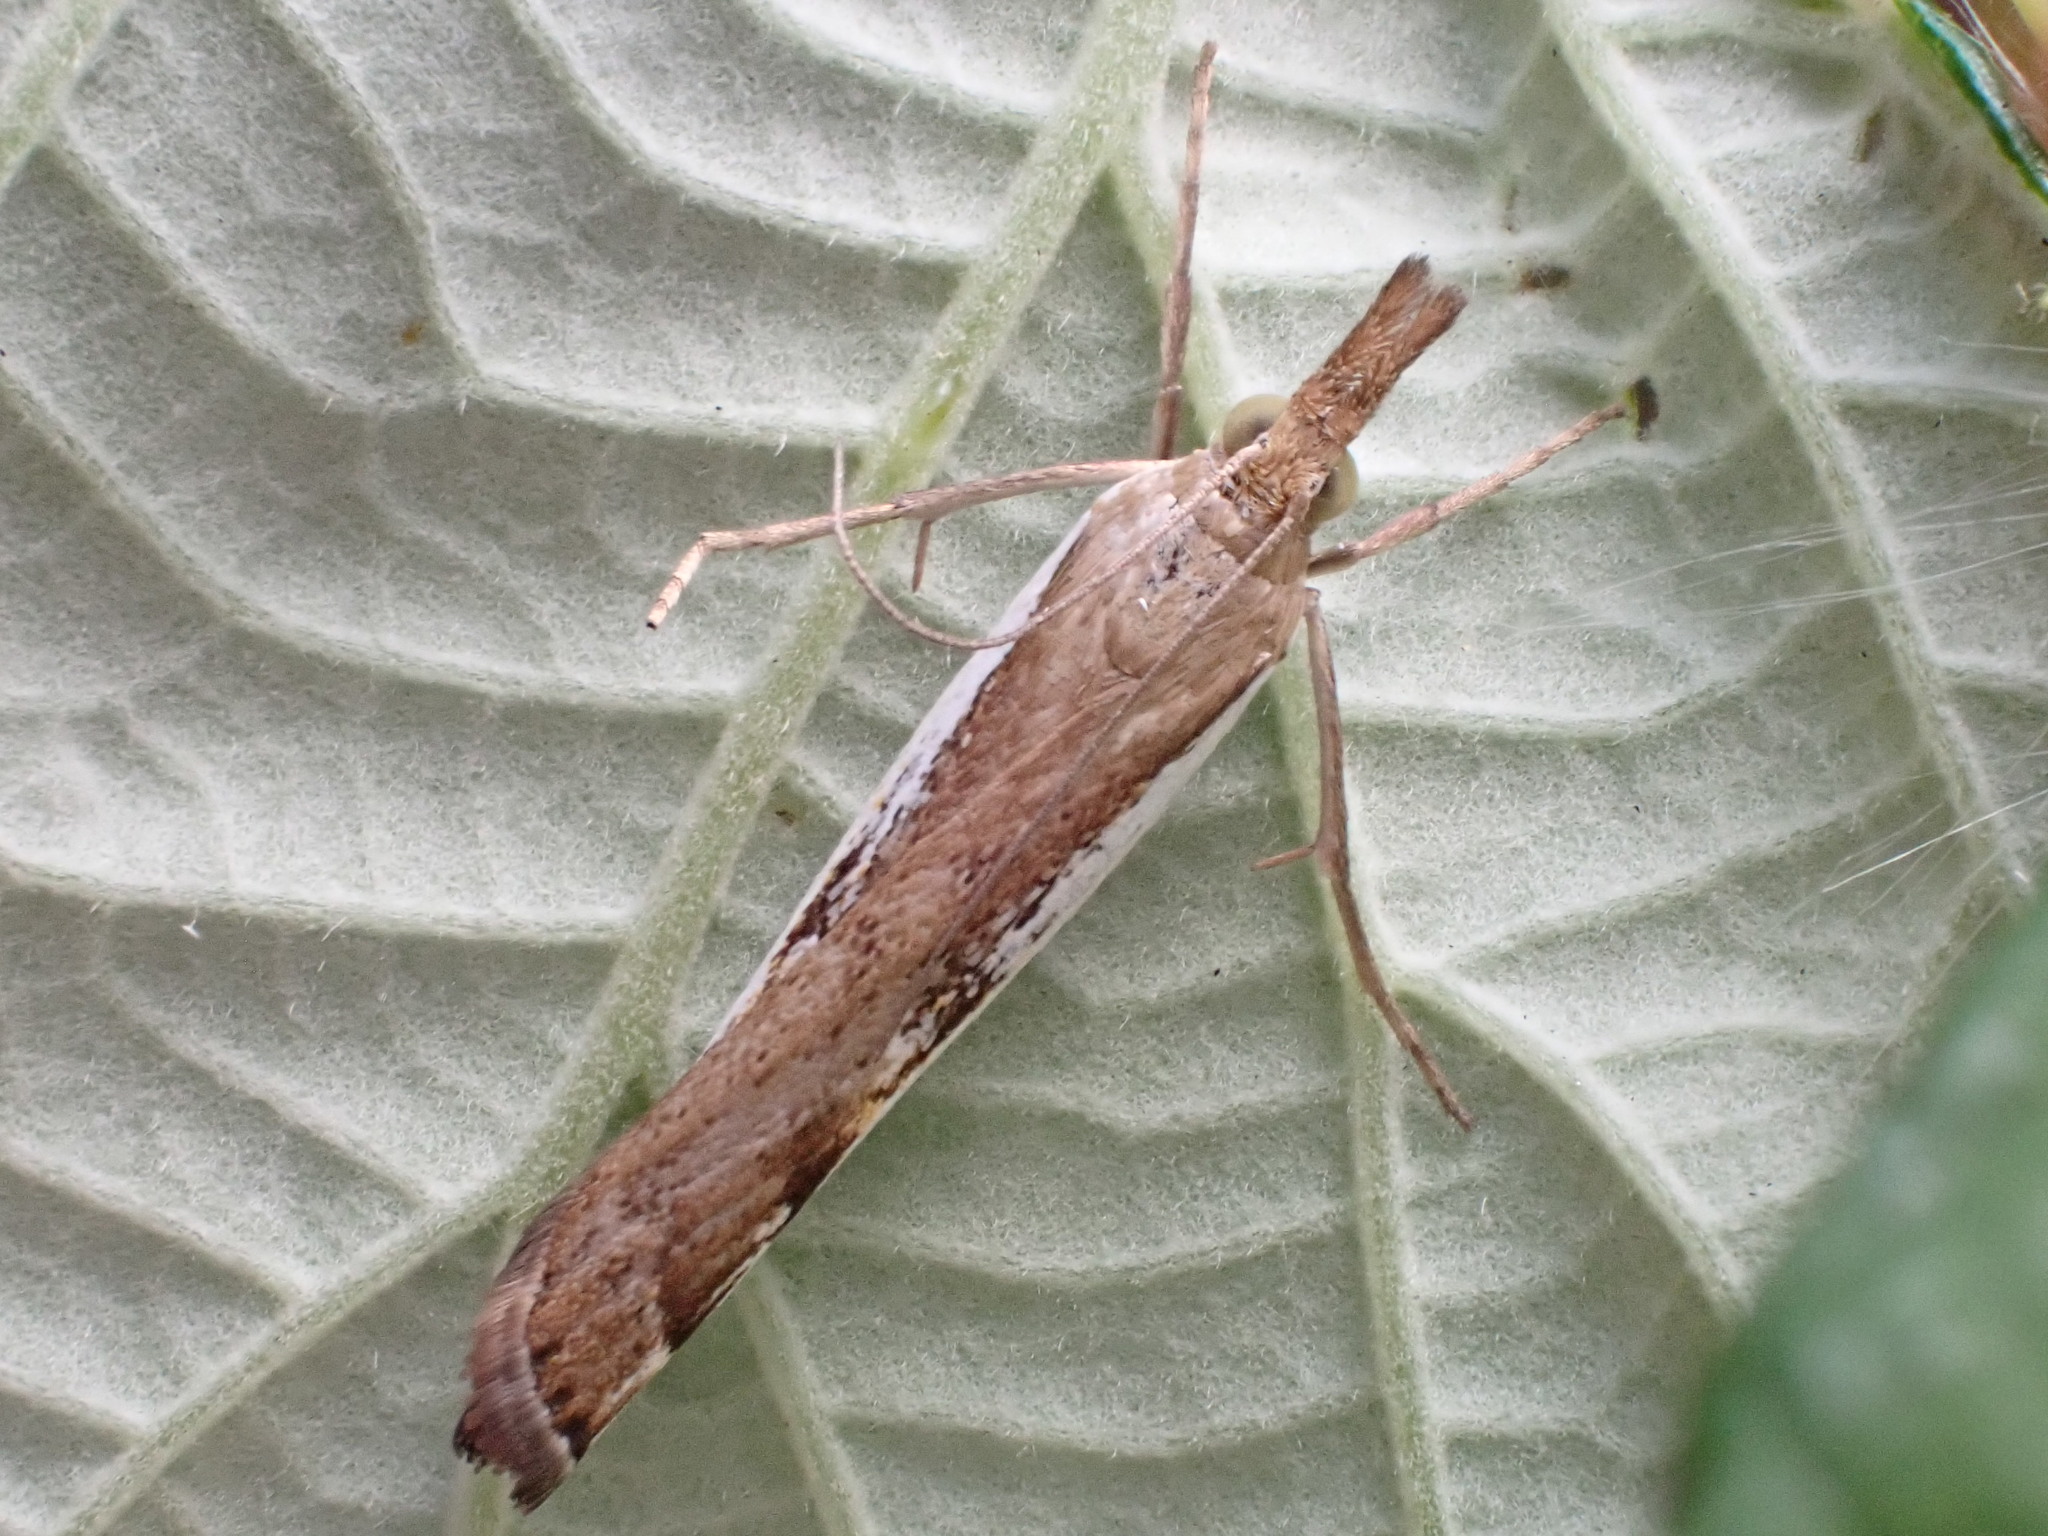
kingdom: Animalia
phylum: Arthropoda
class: Insecta
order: Lepidoptera
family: Crambidae
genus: Orocrambus
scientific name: Orocrambus flexuosellus
